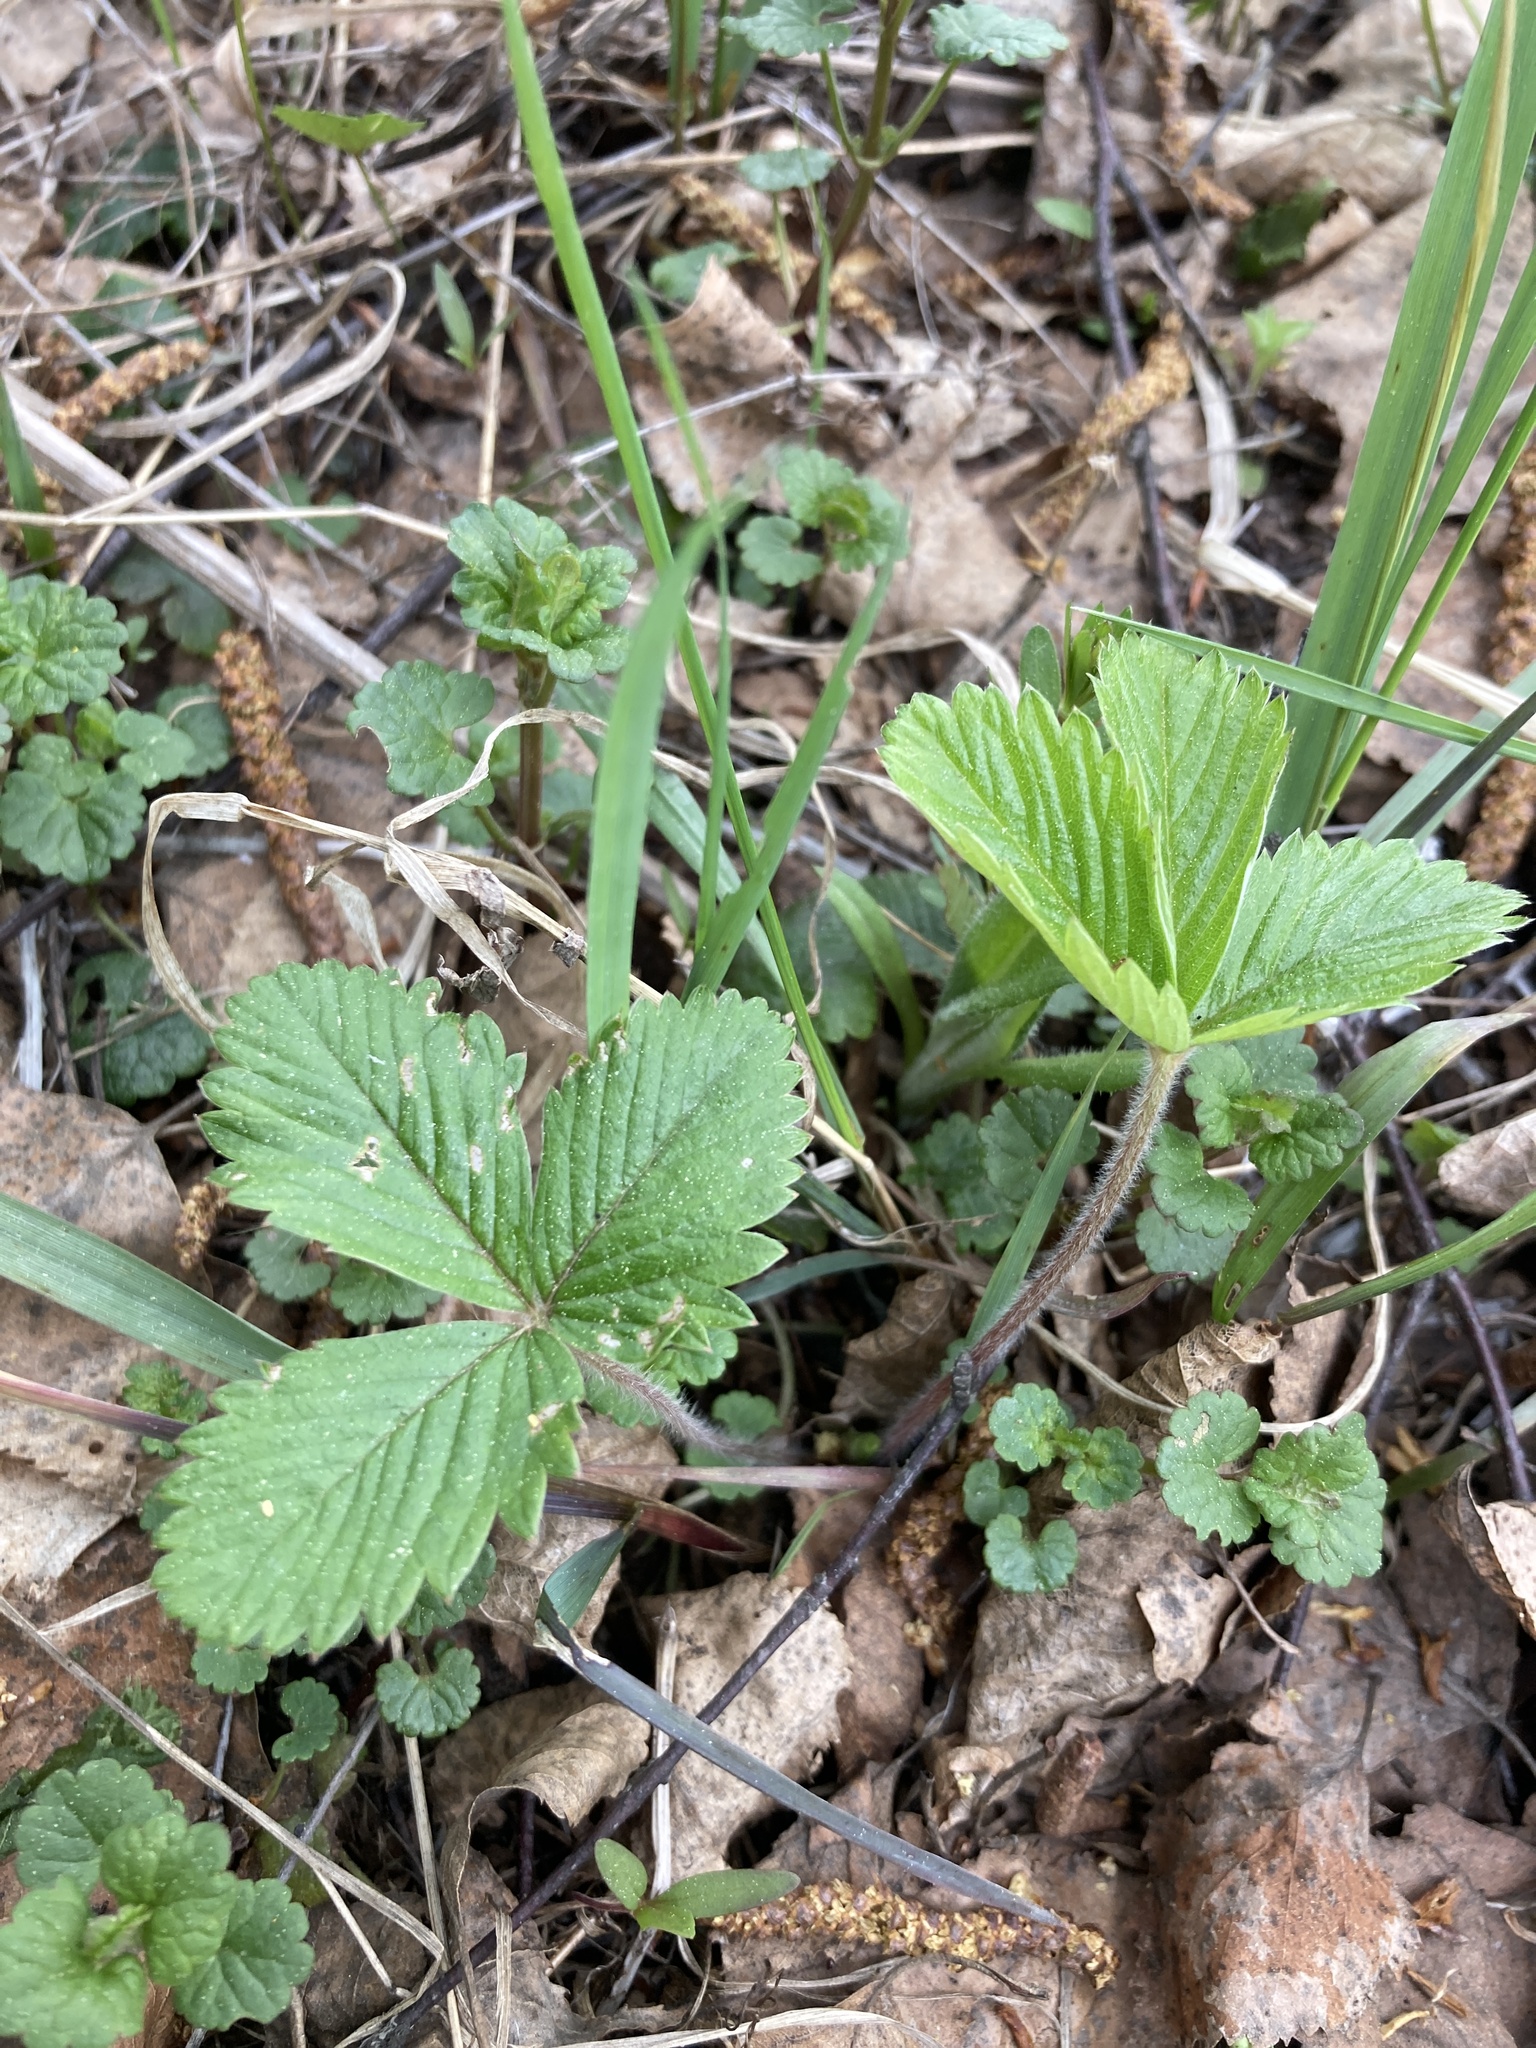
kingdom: Plantae
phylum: Tracheophyta
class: Magnoliopsida
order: Rosales
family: Rosaceae
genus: Fragaria
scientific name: Fragaria vesca
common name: Wild strawberry
